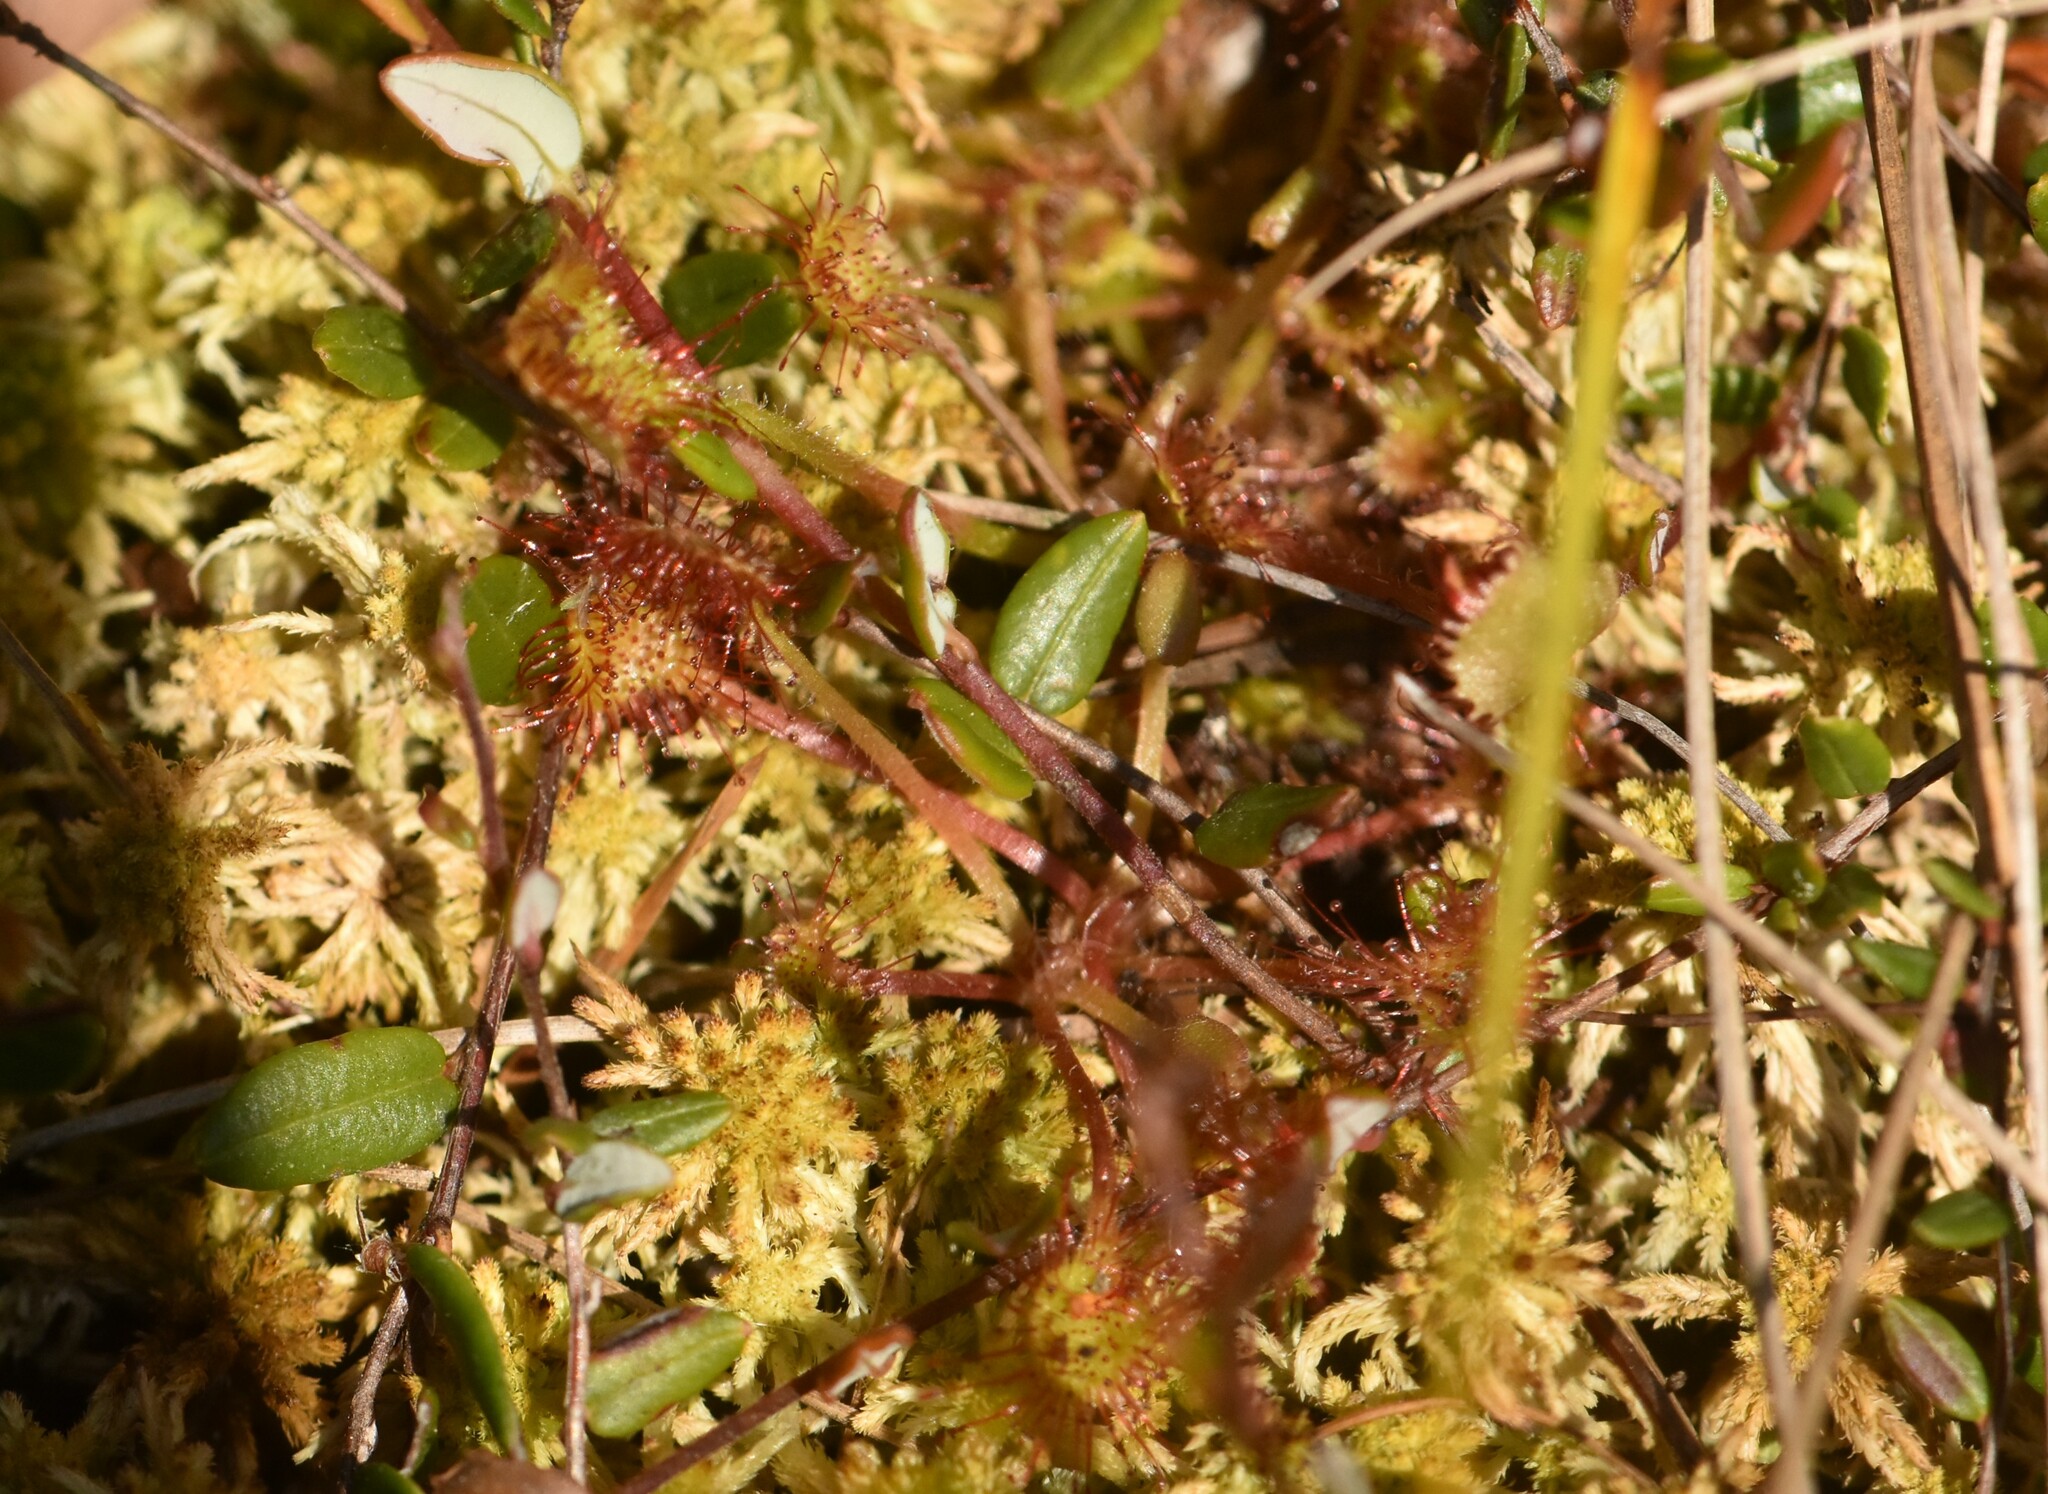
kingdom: Plantae
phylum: Tracheophyta
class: Magnoliopsida
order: Caryophyllales
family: Droseraceae
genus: Drosera
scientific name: Drosera rotundifolia
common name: Round-leaved sundew
